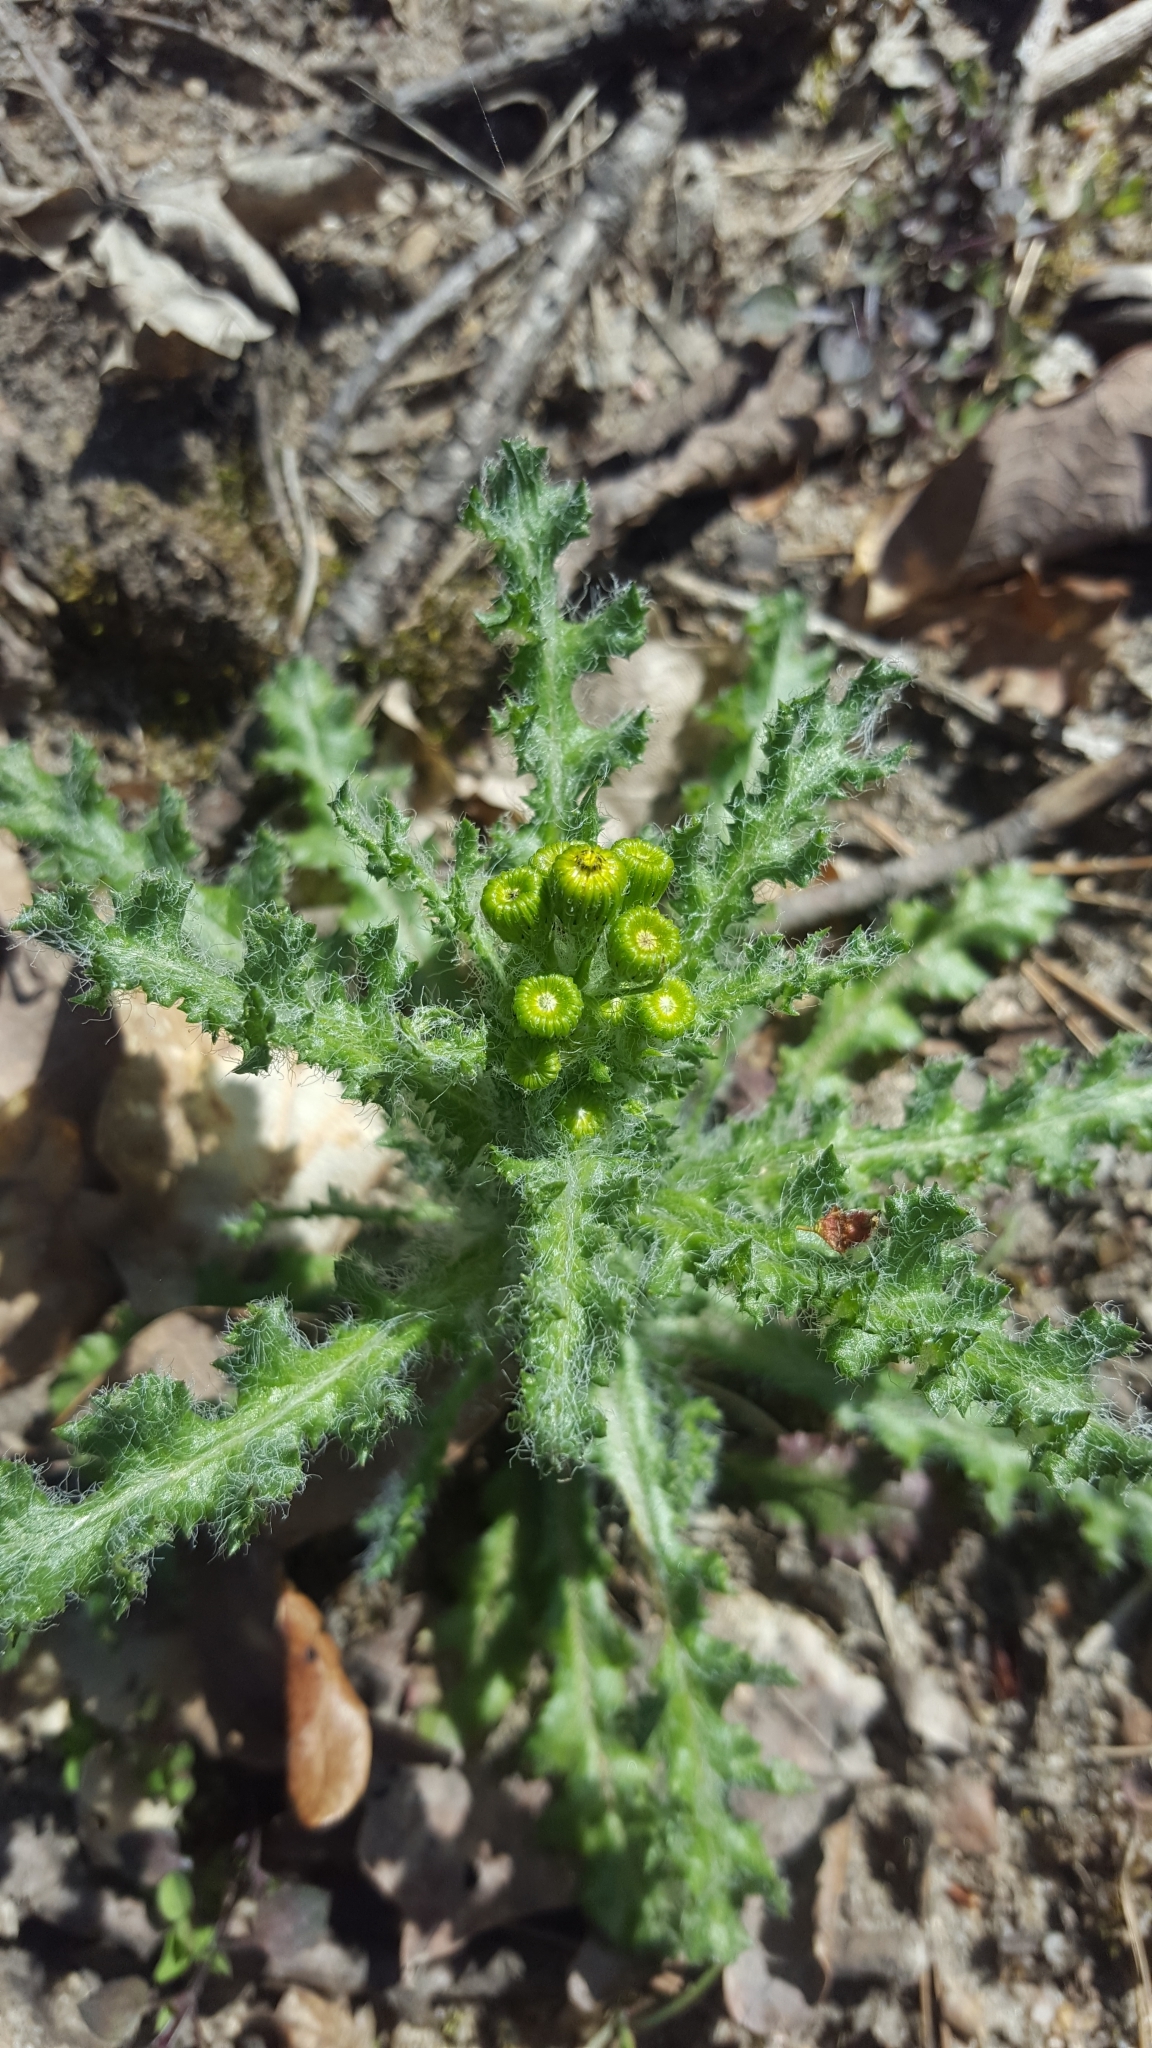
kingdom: Plantae
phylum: Tracheophyta
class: Magnoliopsida
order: Asterales
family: Asteraceae
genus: Senecio
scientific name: Senecio vernalis
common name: Eastern groundsel
